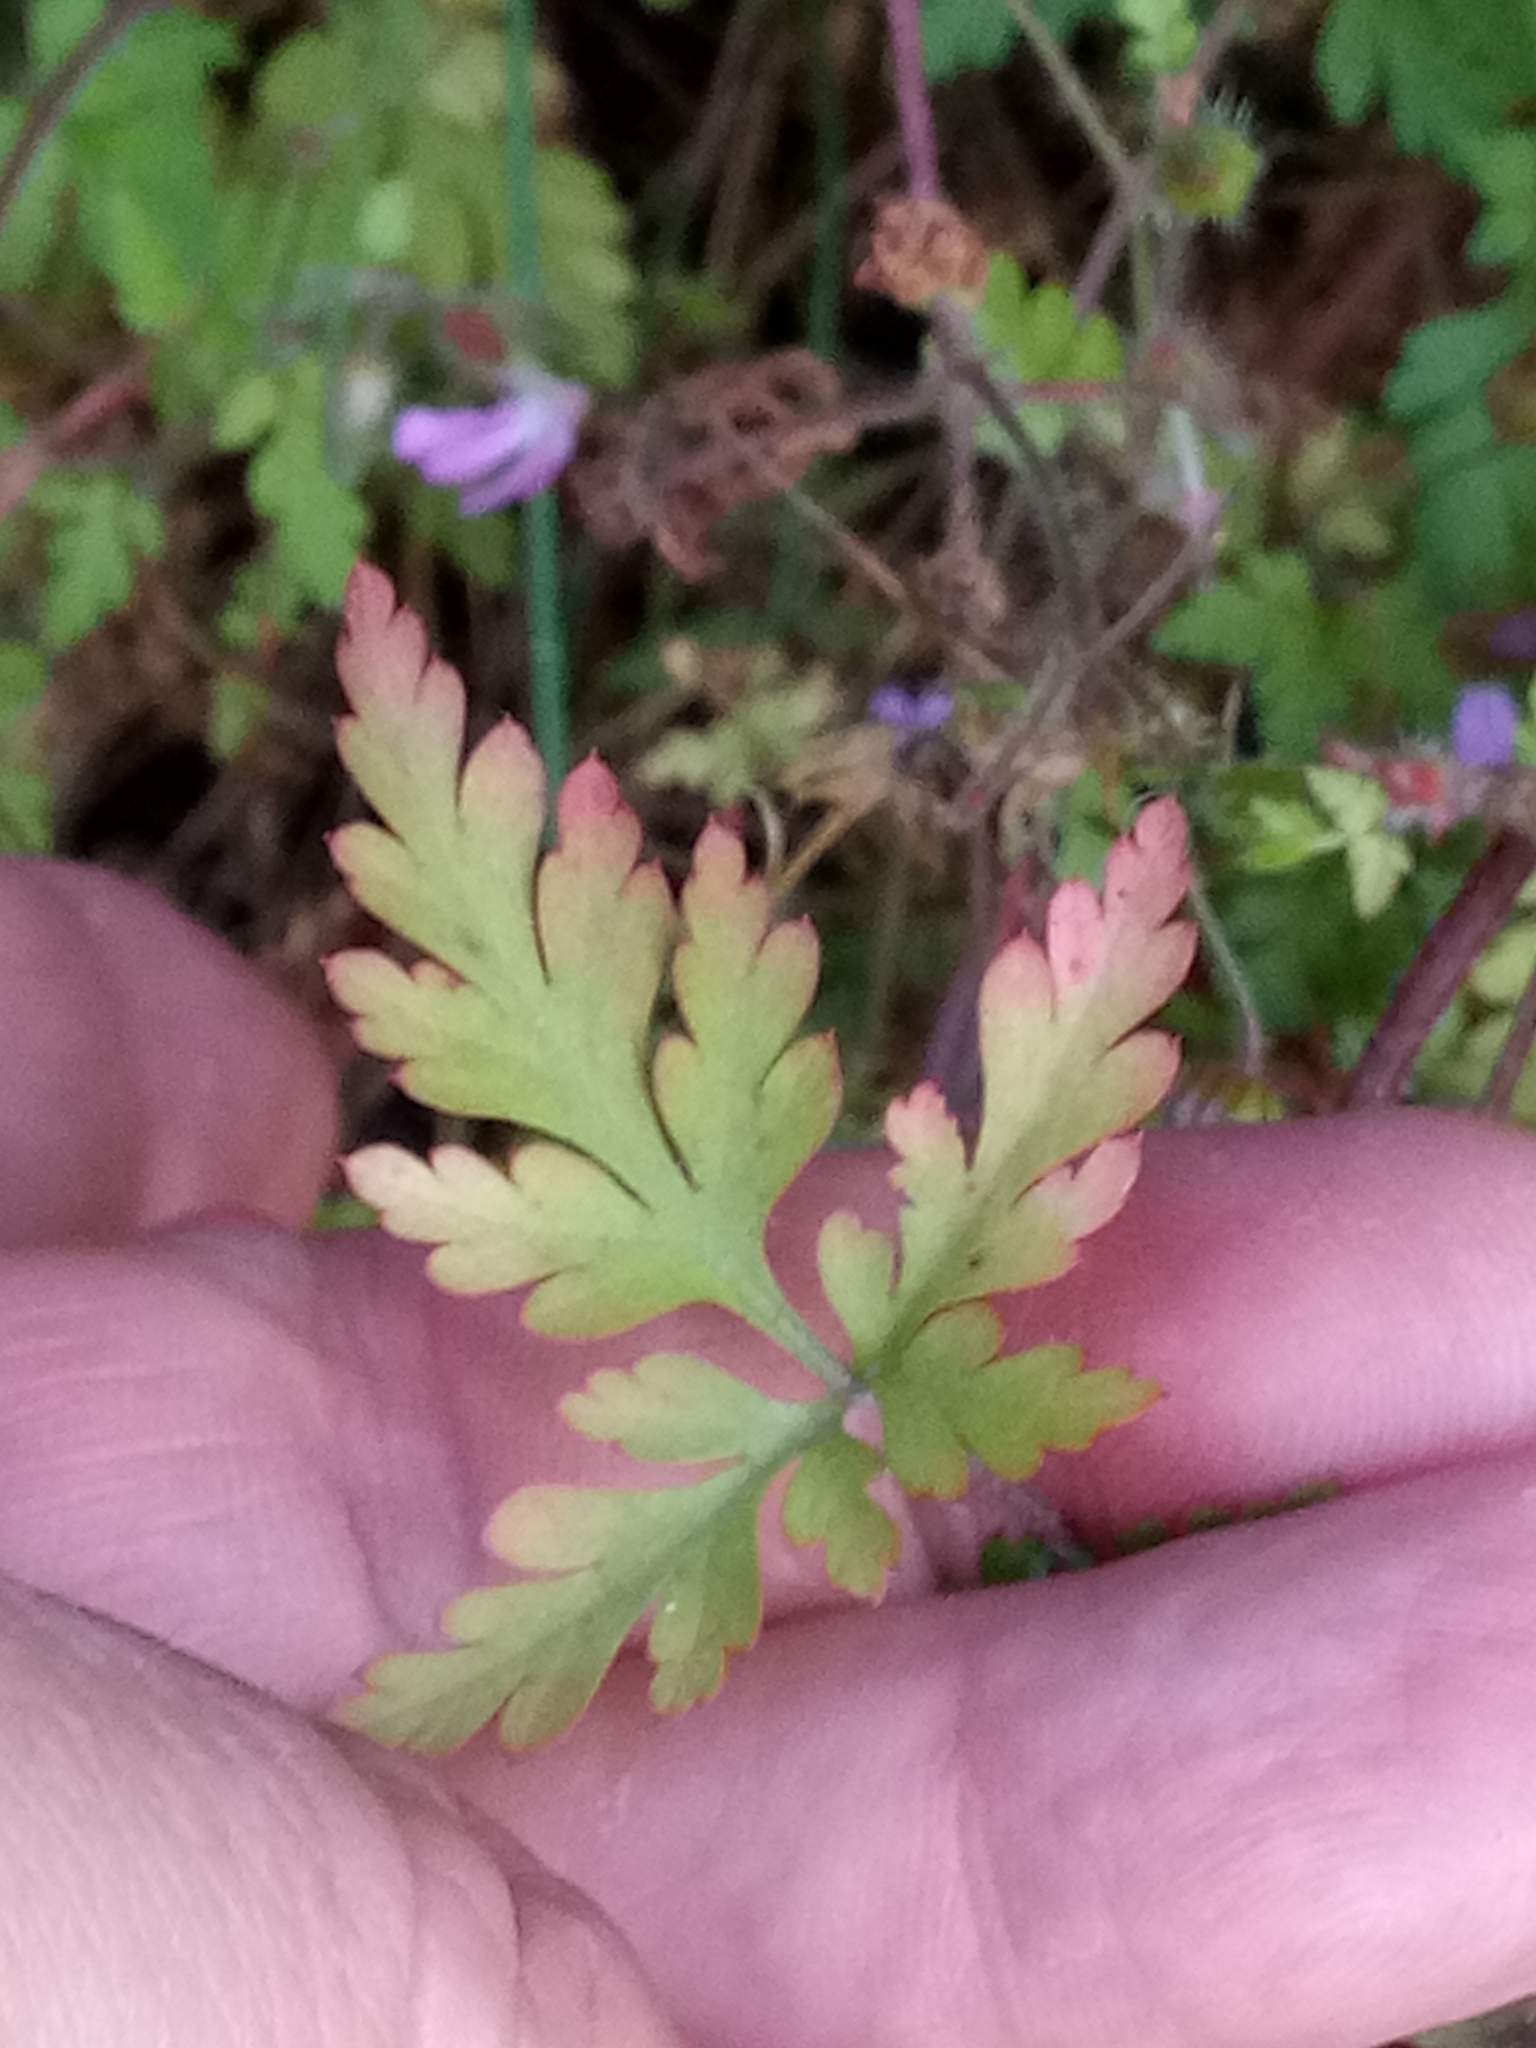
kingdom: Plantae
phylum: Tracheophyta
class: Magnoliopsida
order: Geraniales
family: Geraniaceae
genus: Geranium
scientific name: Geranium robertianum
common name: Herb-robert
